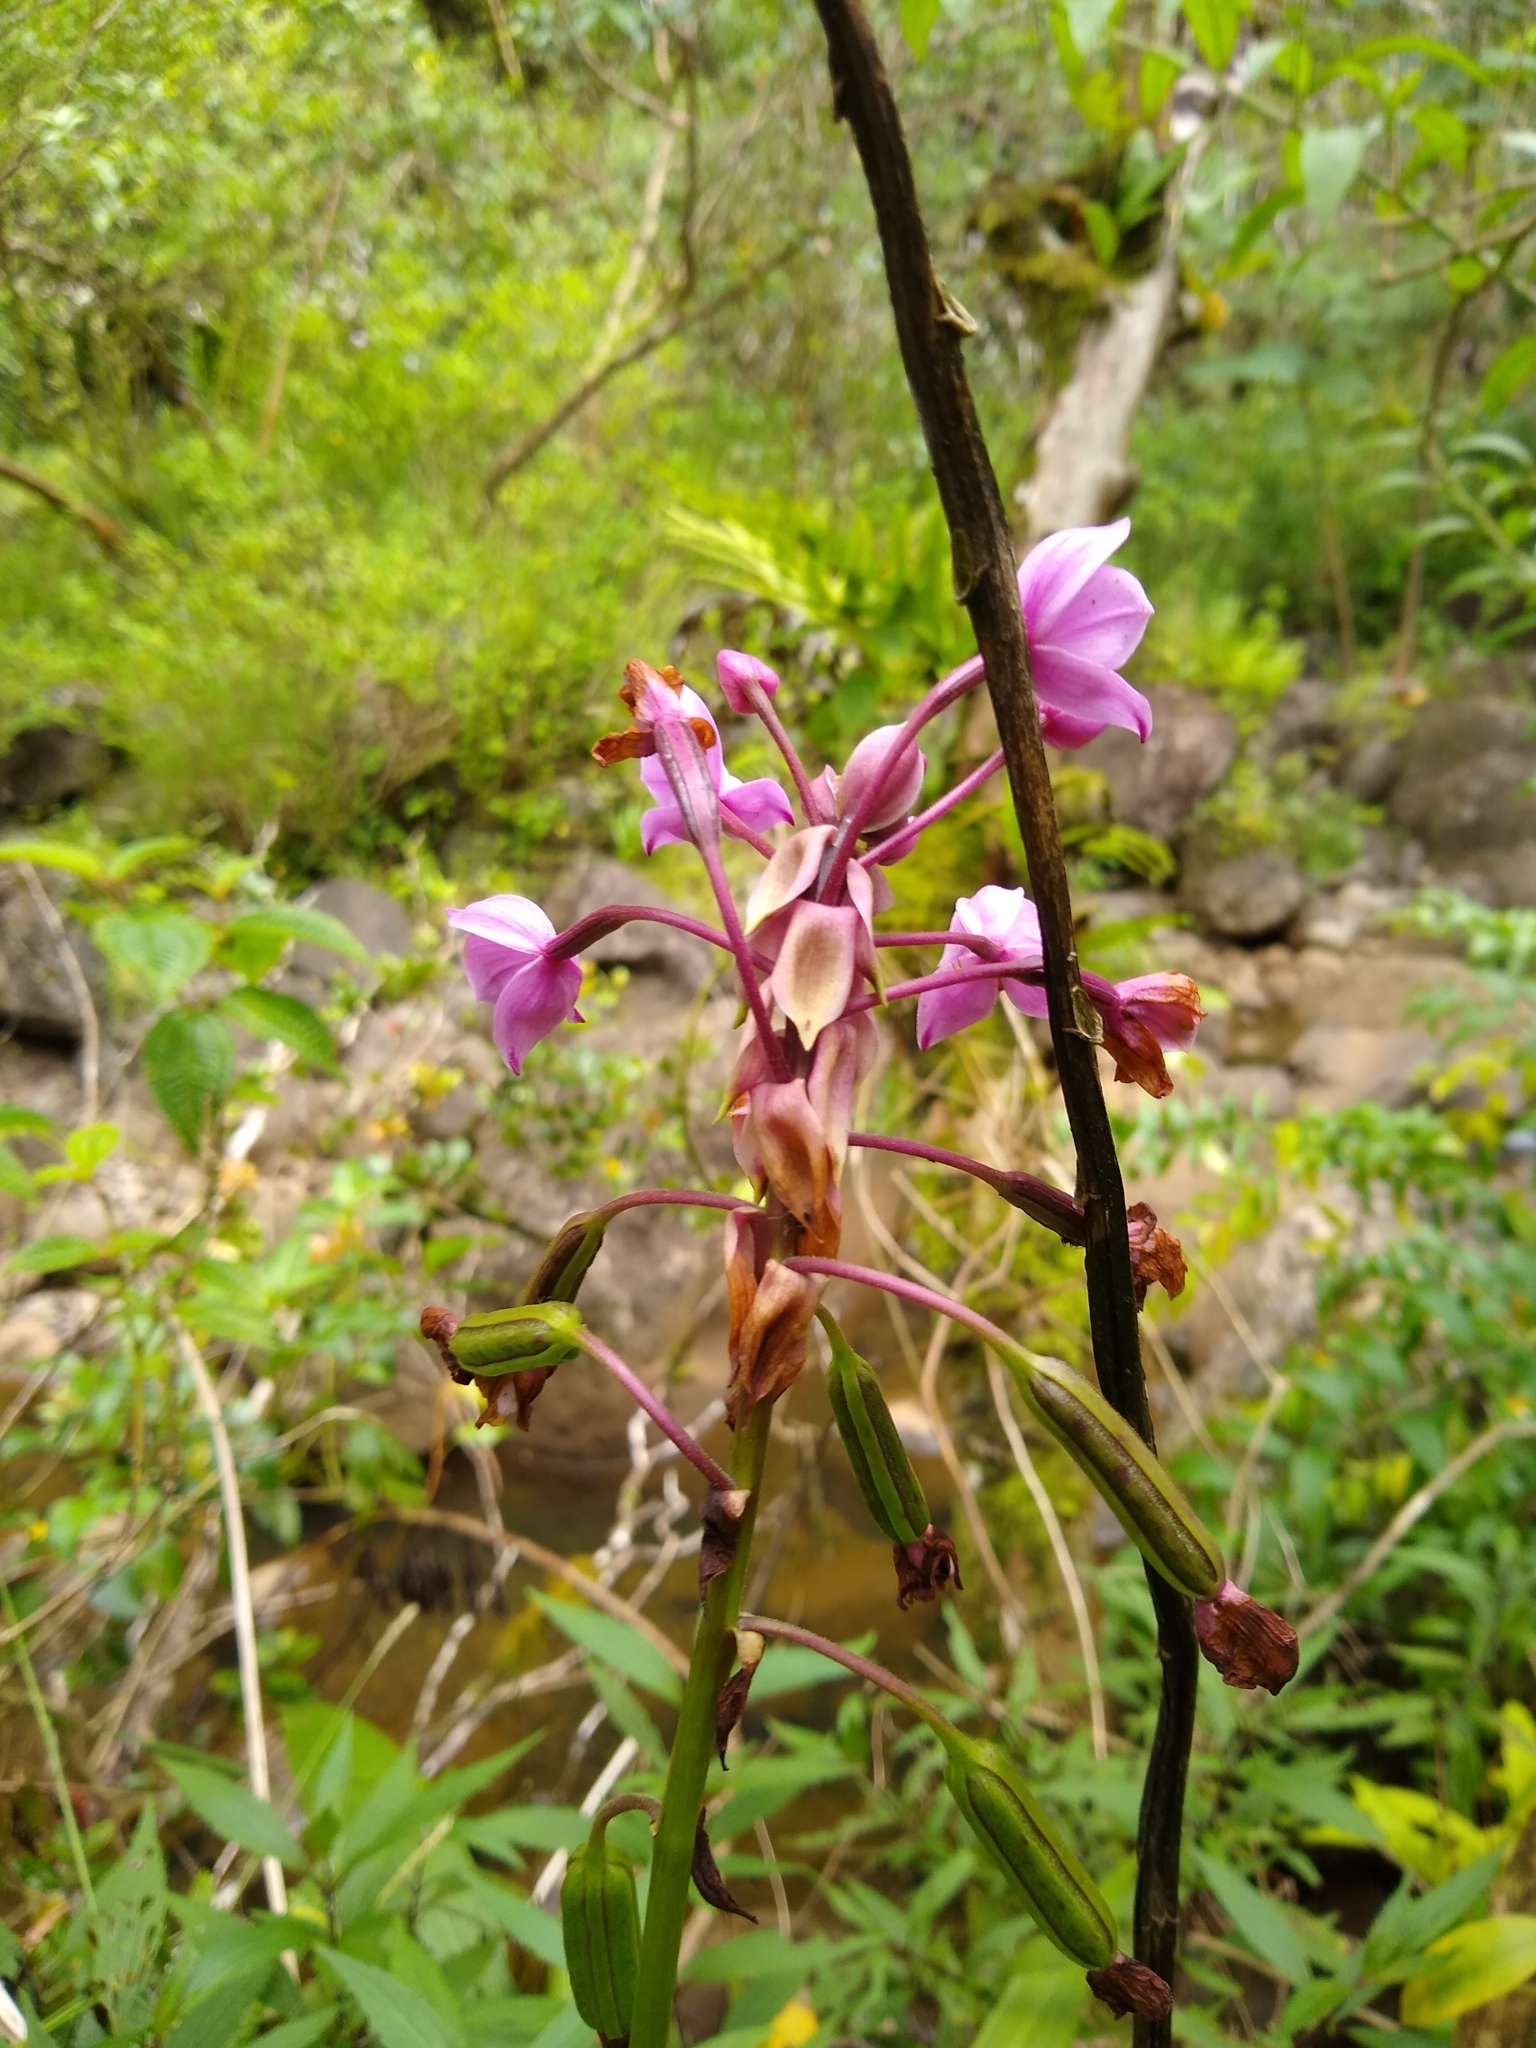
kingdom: Plantae
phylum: Tracheophyta
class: Liliopsida
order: Asparagales
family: Orchidaceae
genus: Spathoglottis
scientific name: Spathoglottis plicata
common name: Philippine ground orchid
